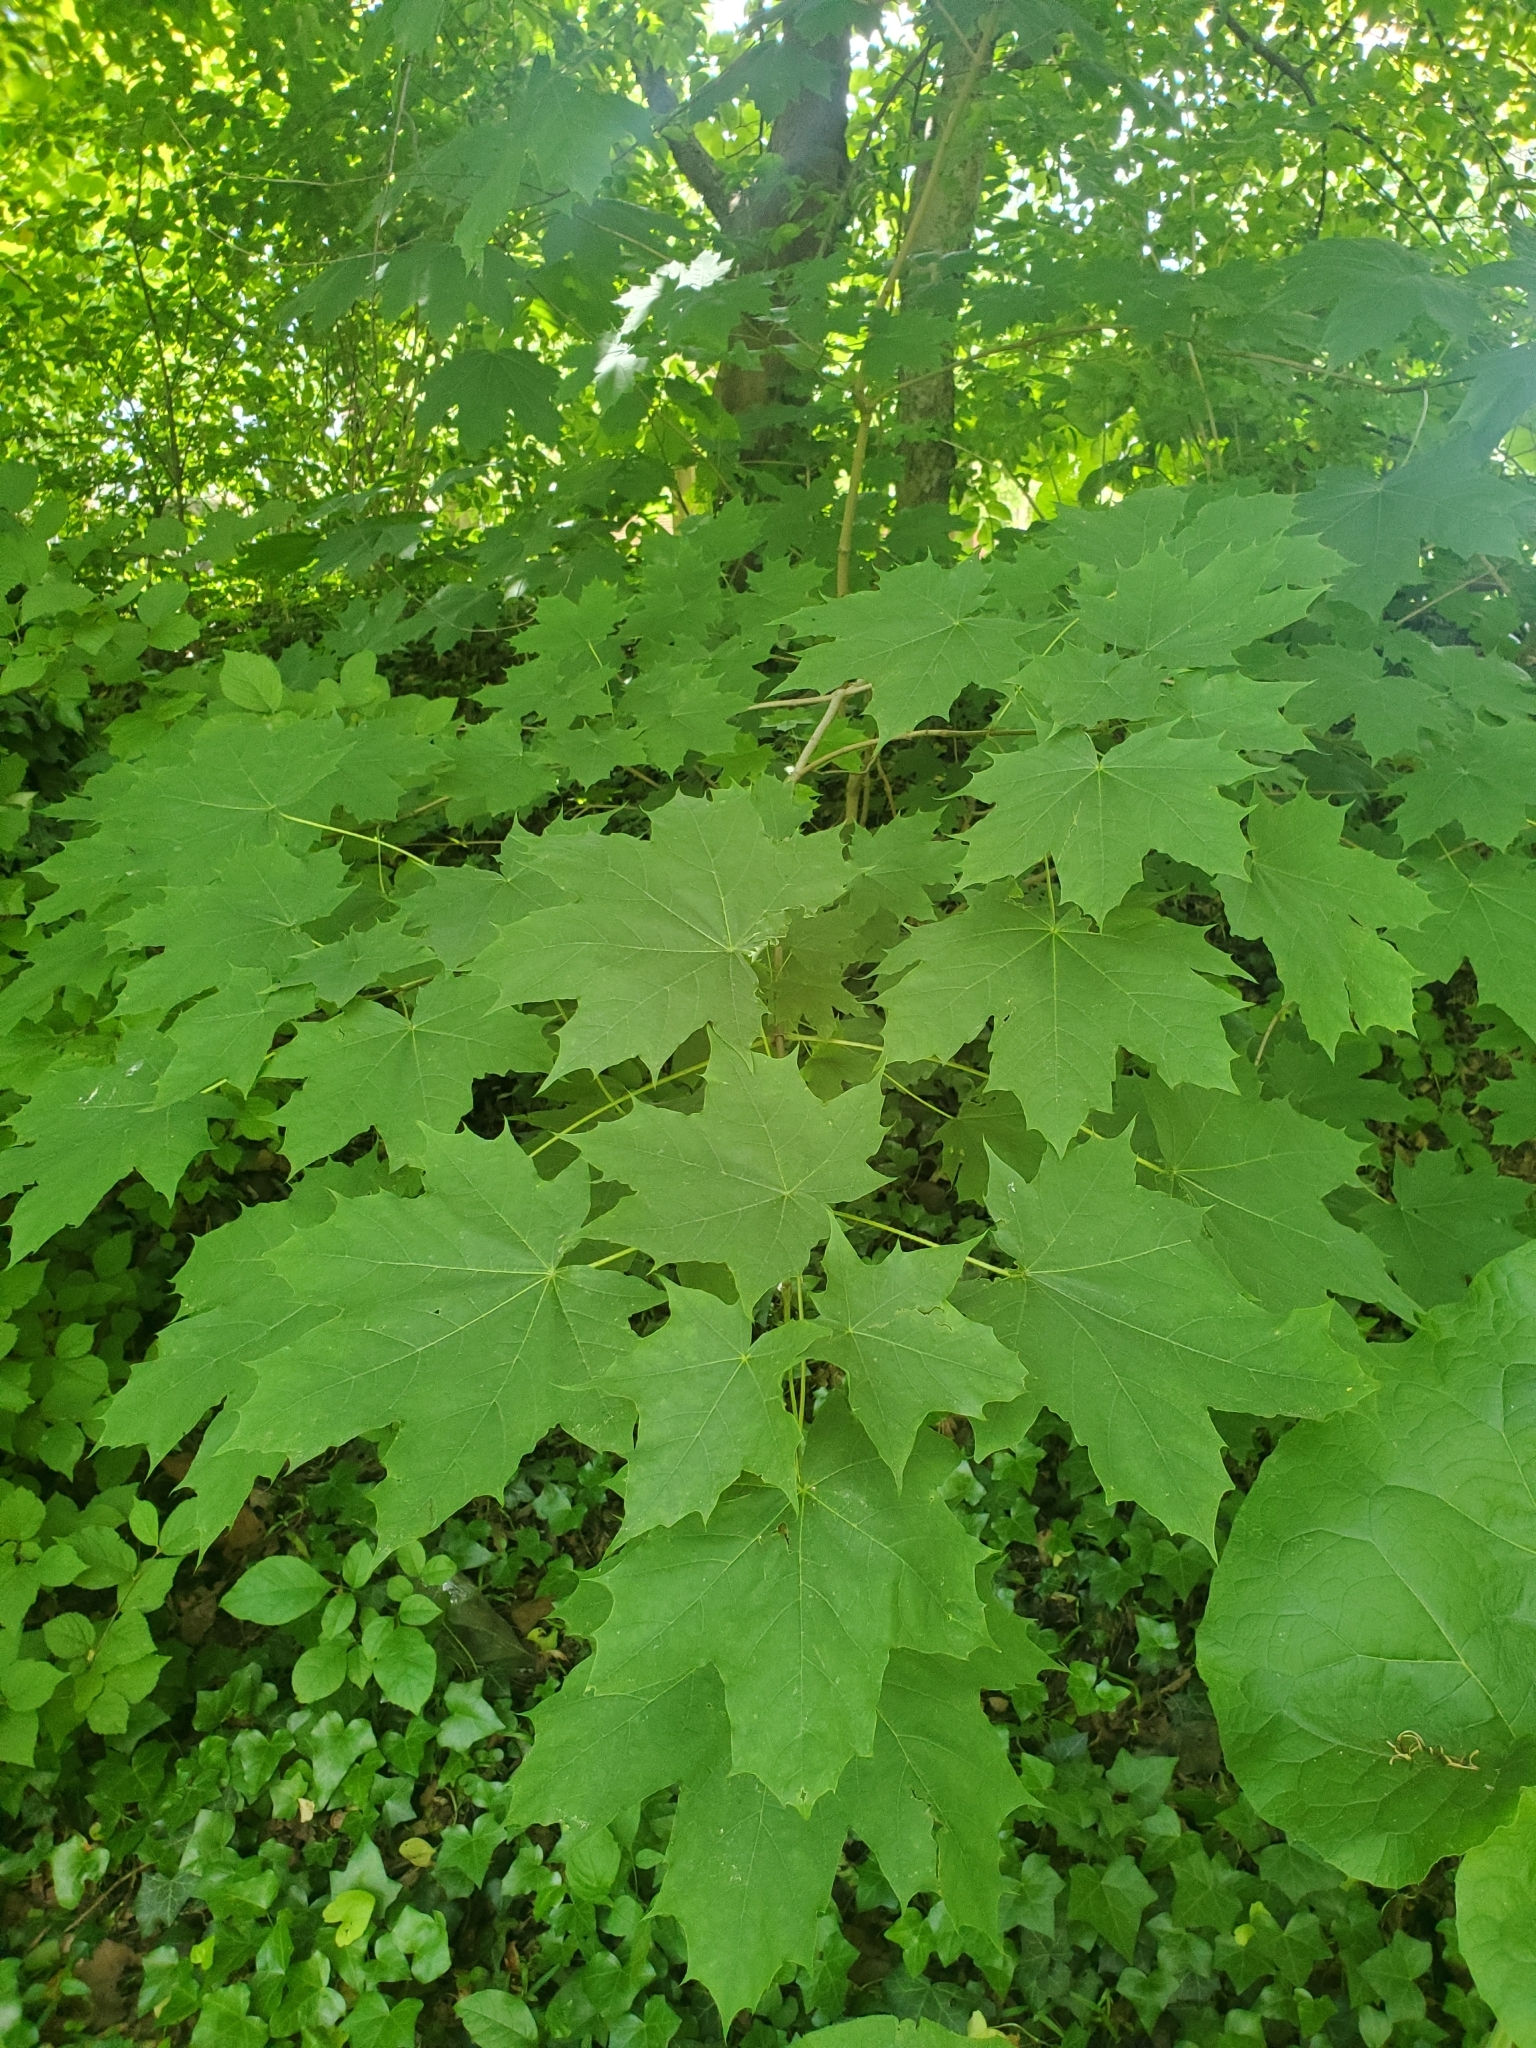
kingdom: Plantae
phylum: Tracheophyta
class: Magnoliopsida
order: Sapindales
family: Sapindaceae
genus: Acer
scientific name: Acer platanoides
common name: Norway maple
